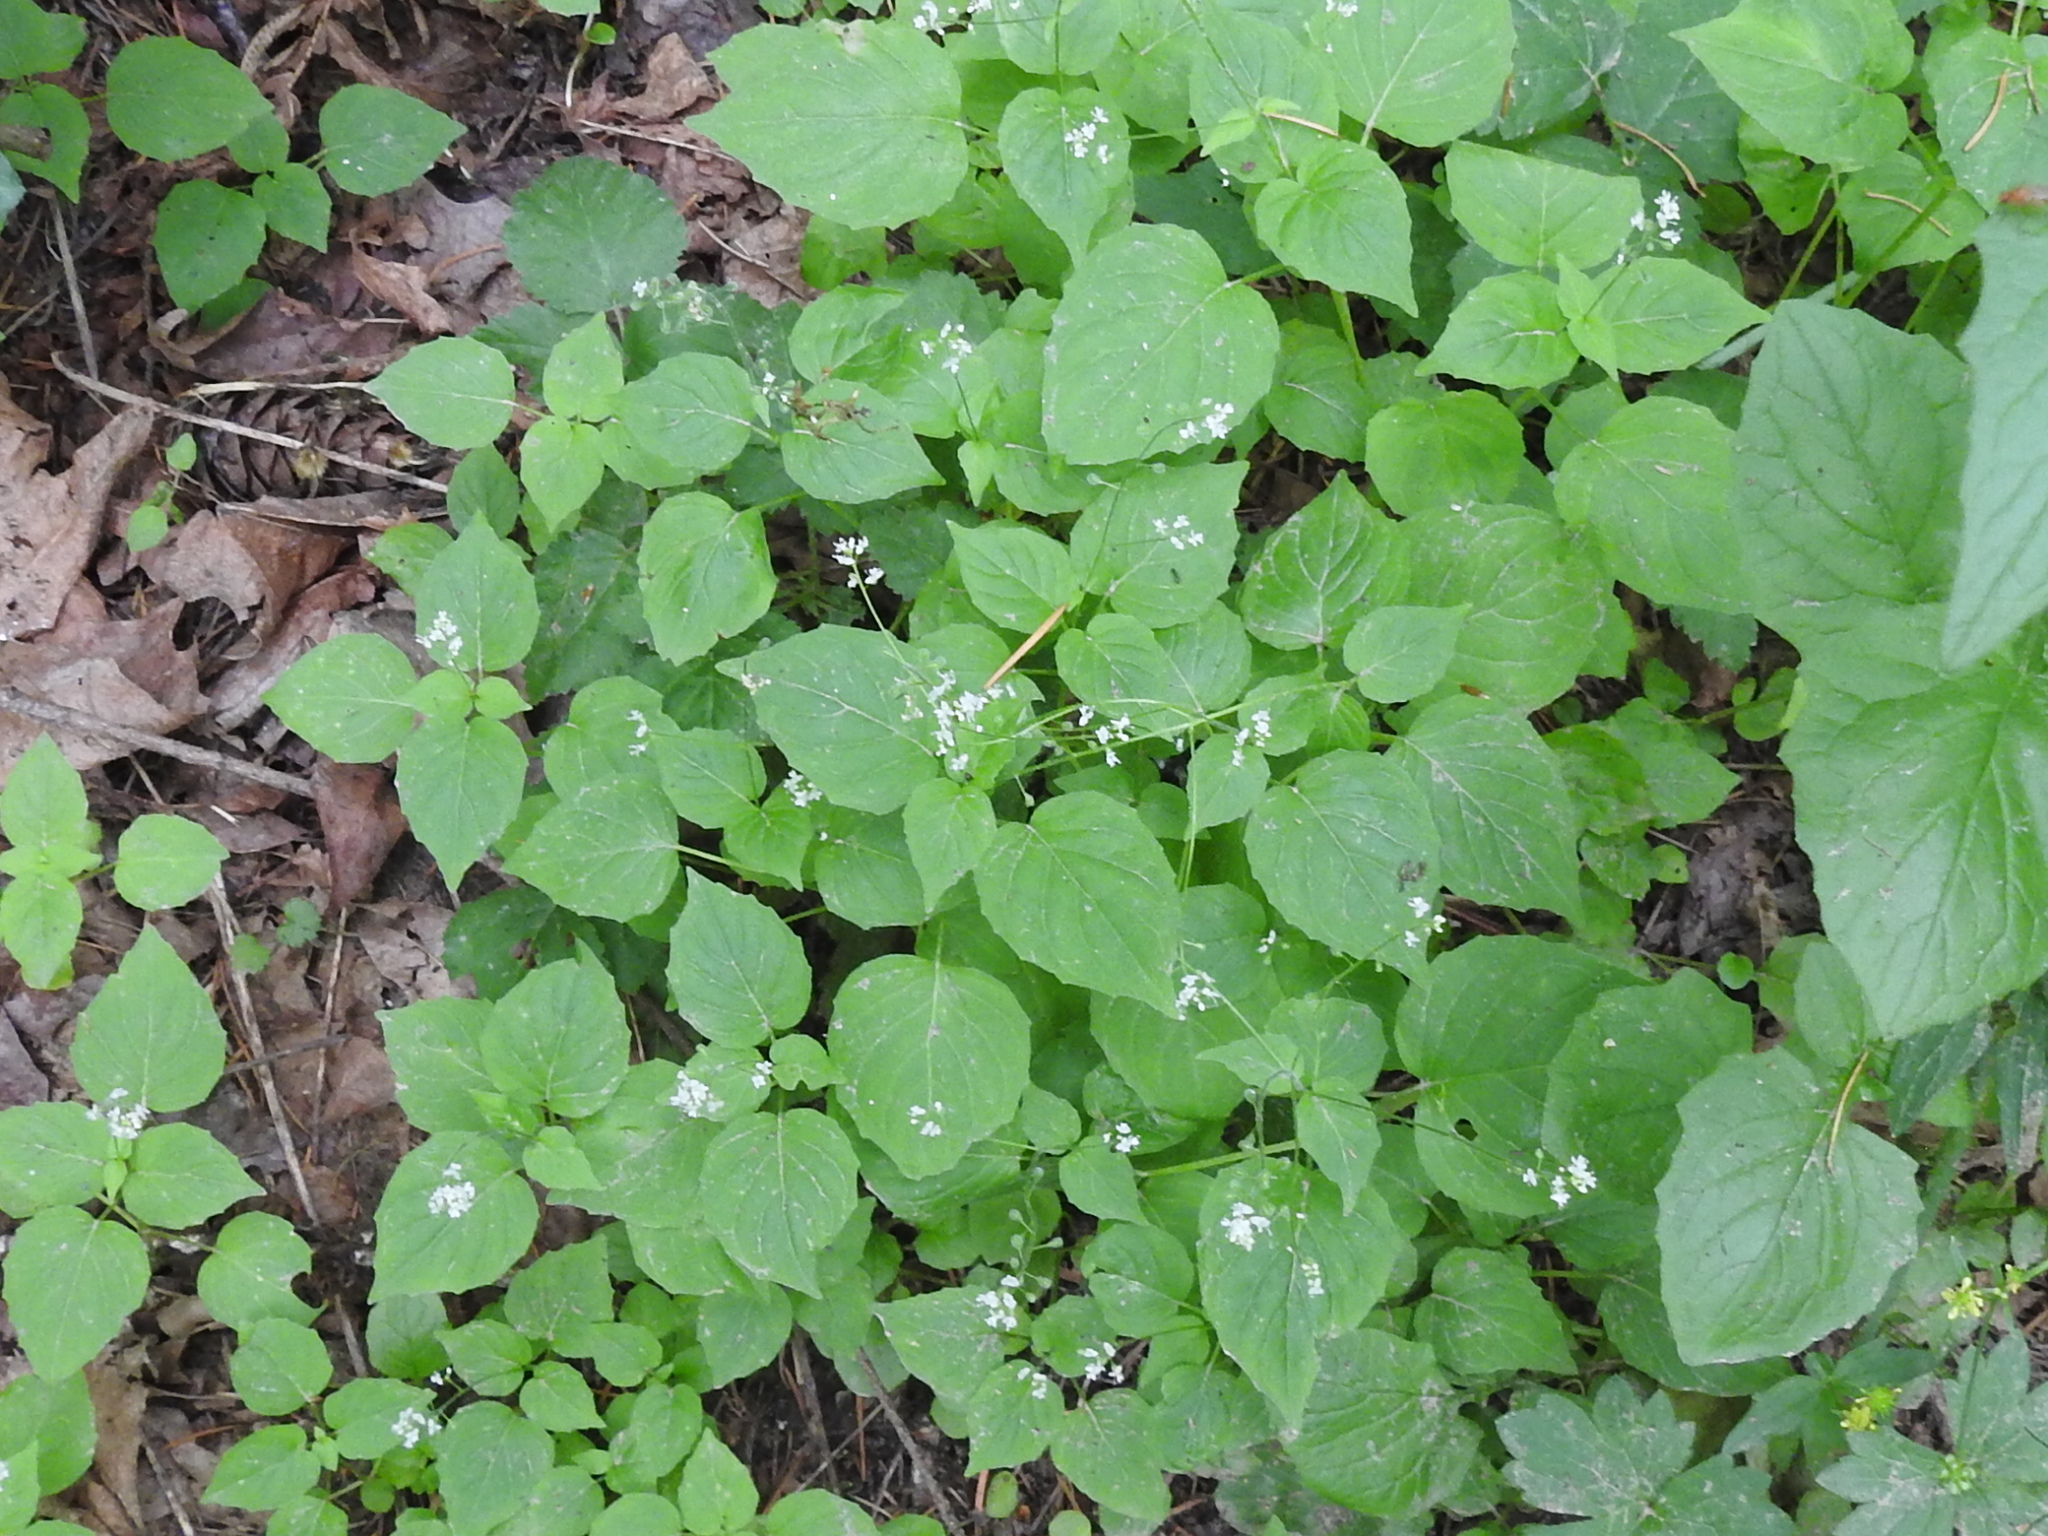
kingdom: Plantae
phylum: Tracheophyta
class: Magnoliopsida
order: Myrtales
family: Onagraceae
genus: Circaea
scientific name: Circaea alpina
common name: Alpine enchanter's-nightshade
